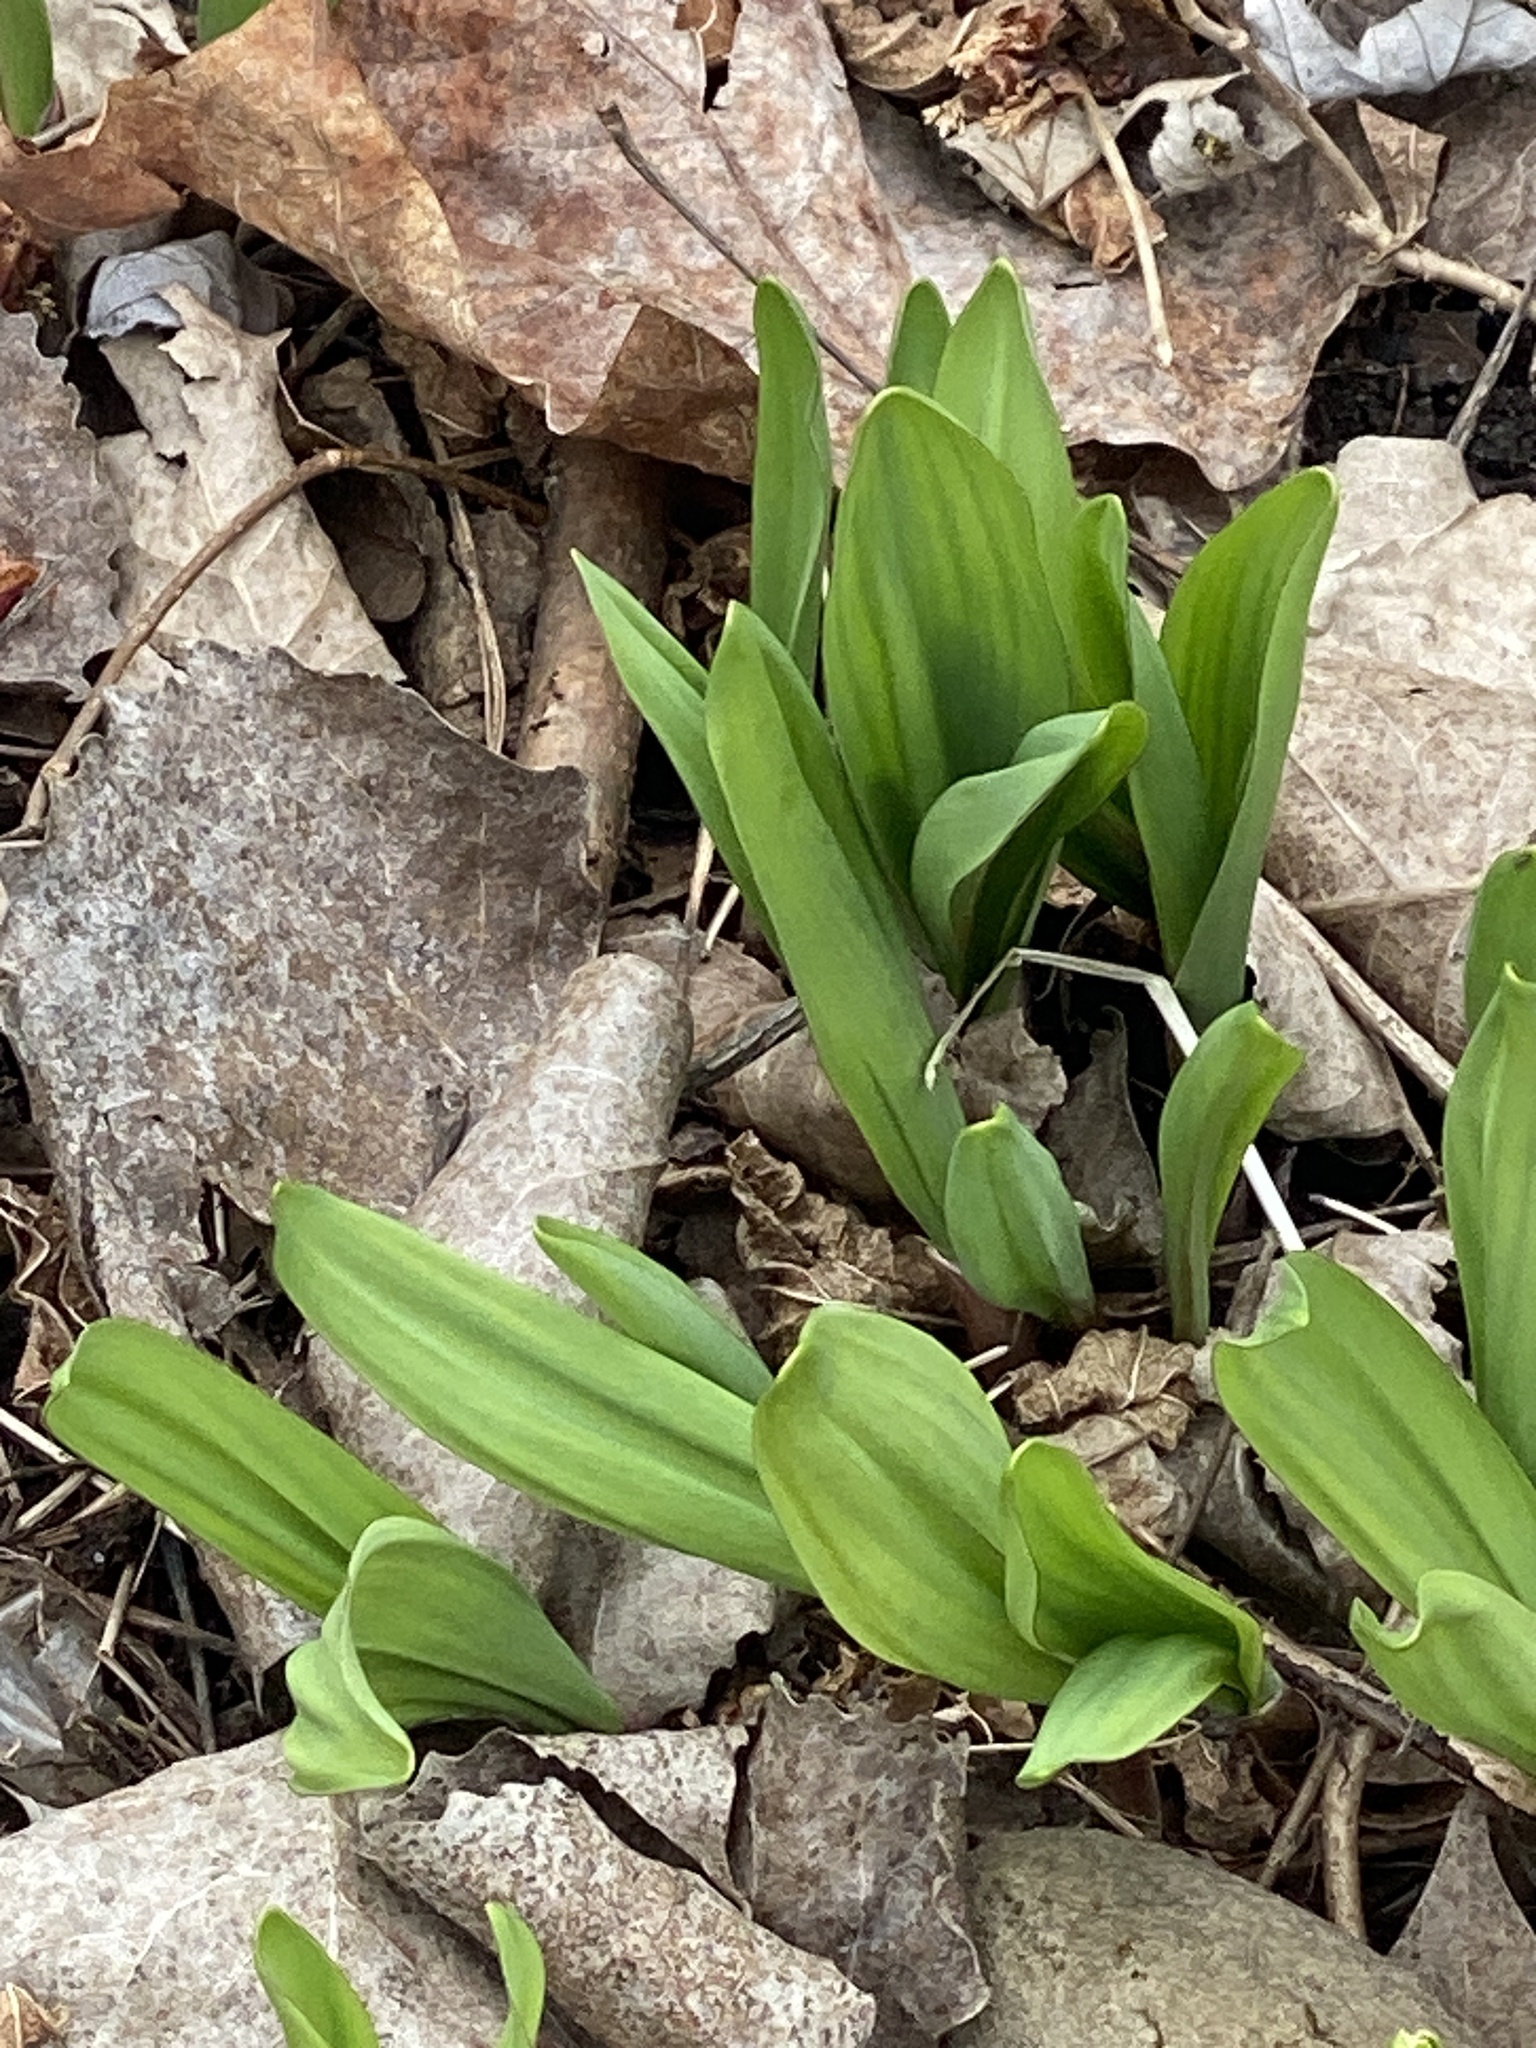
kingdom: Plantae
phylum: Tracheophyta
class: Liliopsida
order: Asparagales
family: Amaryllidaceae
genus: Allium
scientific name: Allium tricoccum
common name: Ramp
